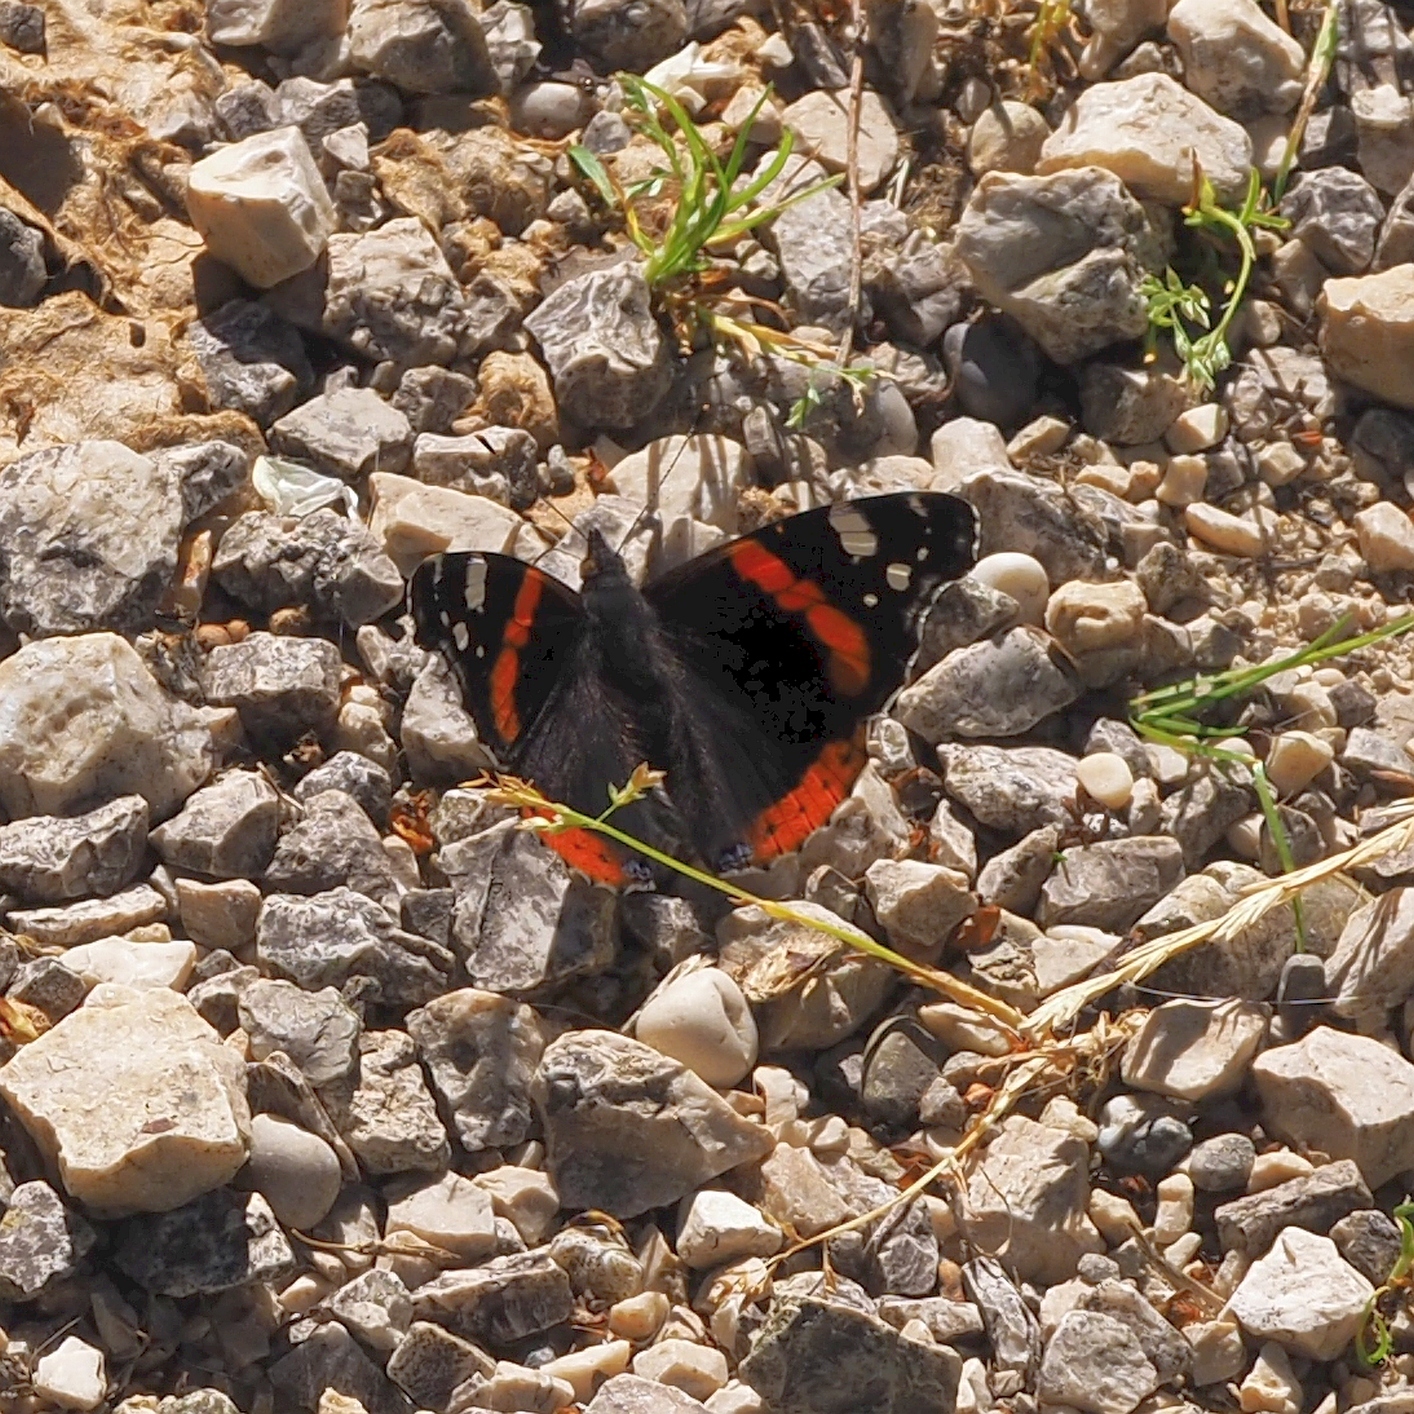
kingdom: Animalia
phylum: Arthropoda
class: Insecta
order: Lepidoptera
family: Nymphalidae
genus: Vanessa
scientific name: Vanessa atalanta
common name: Red admiral
